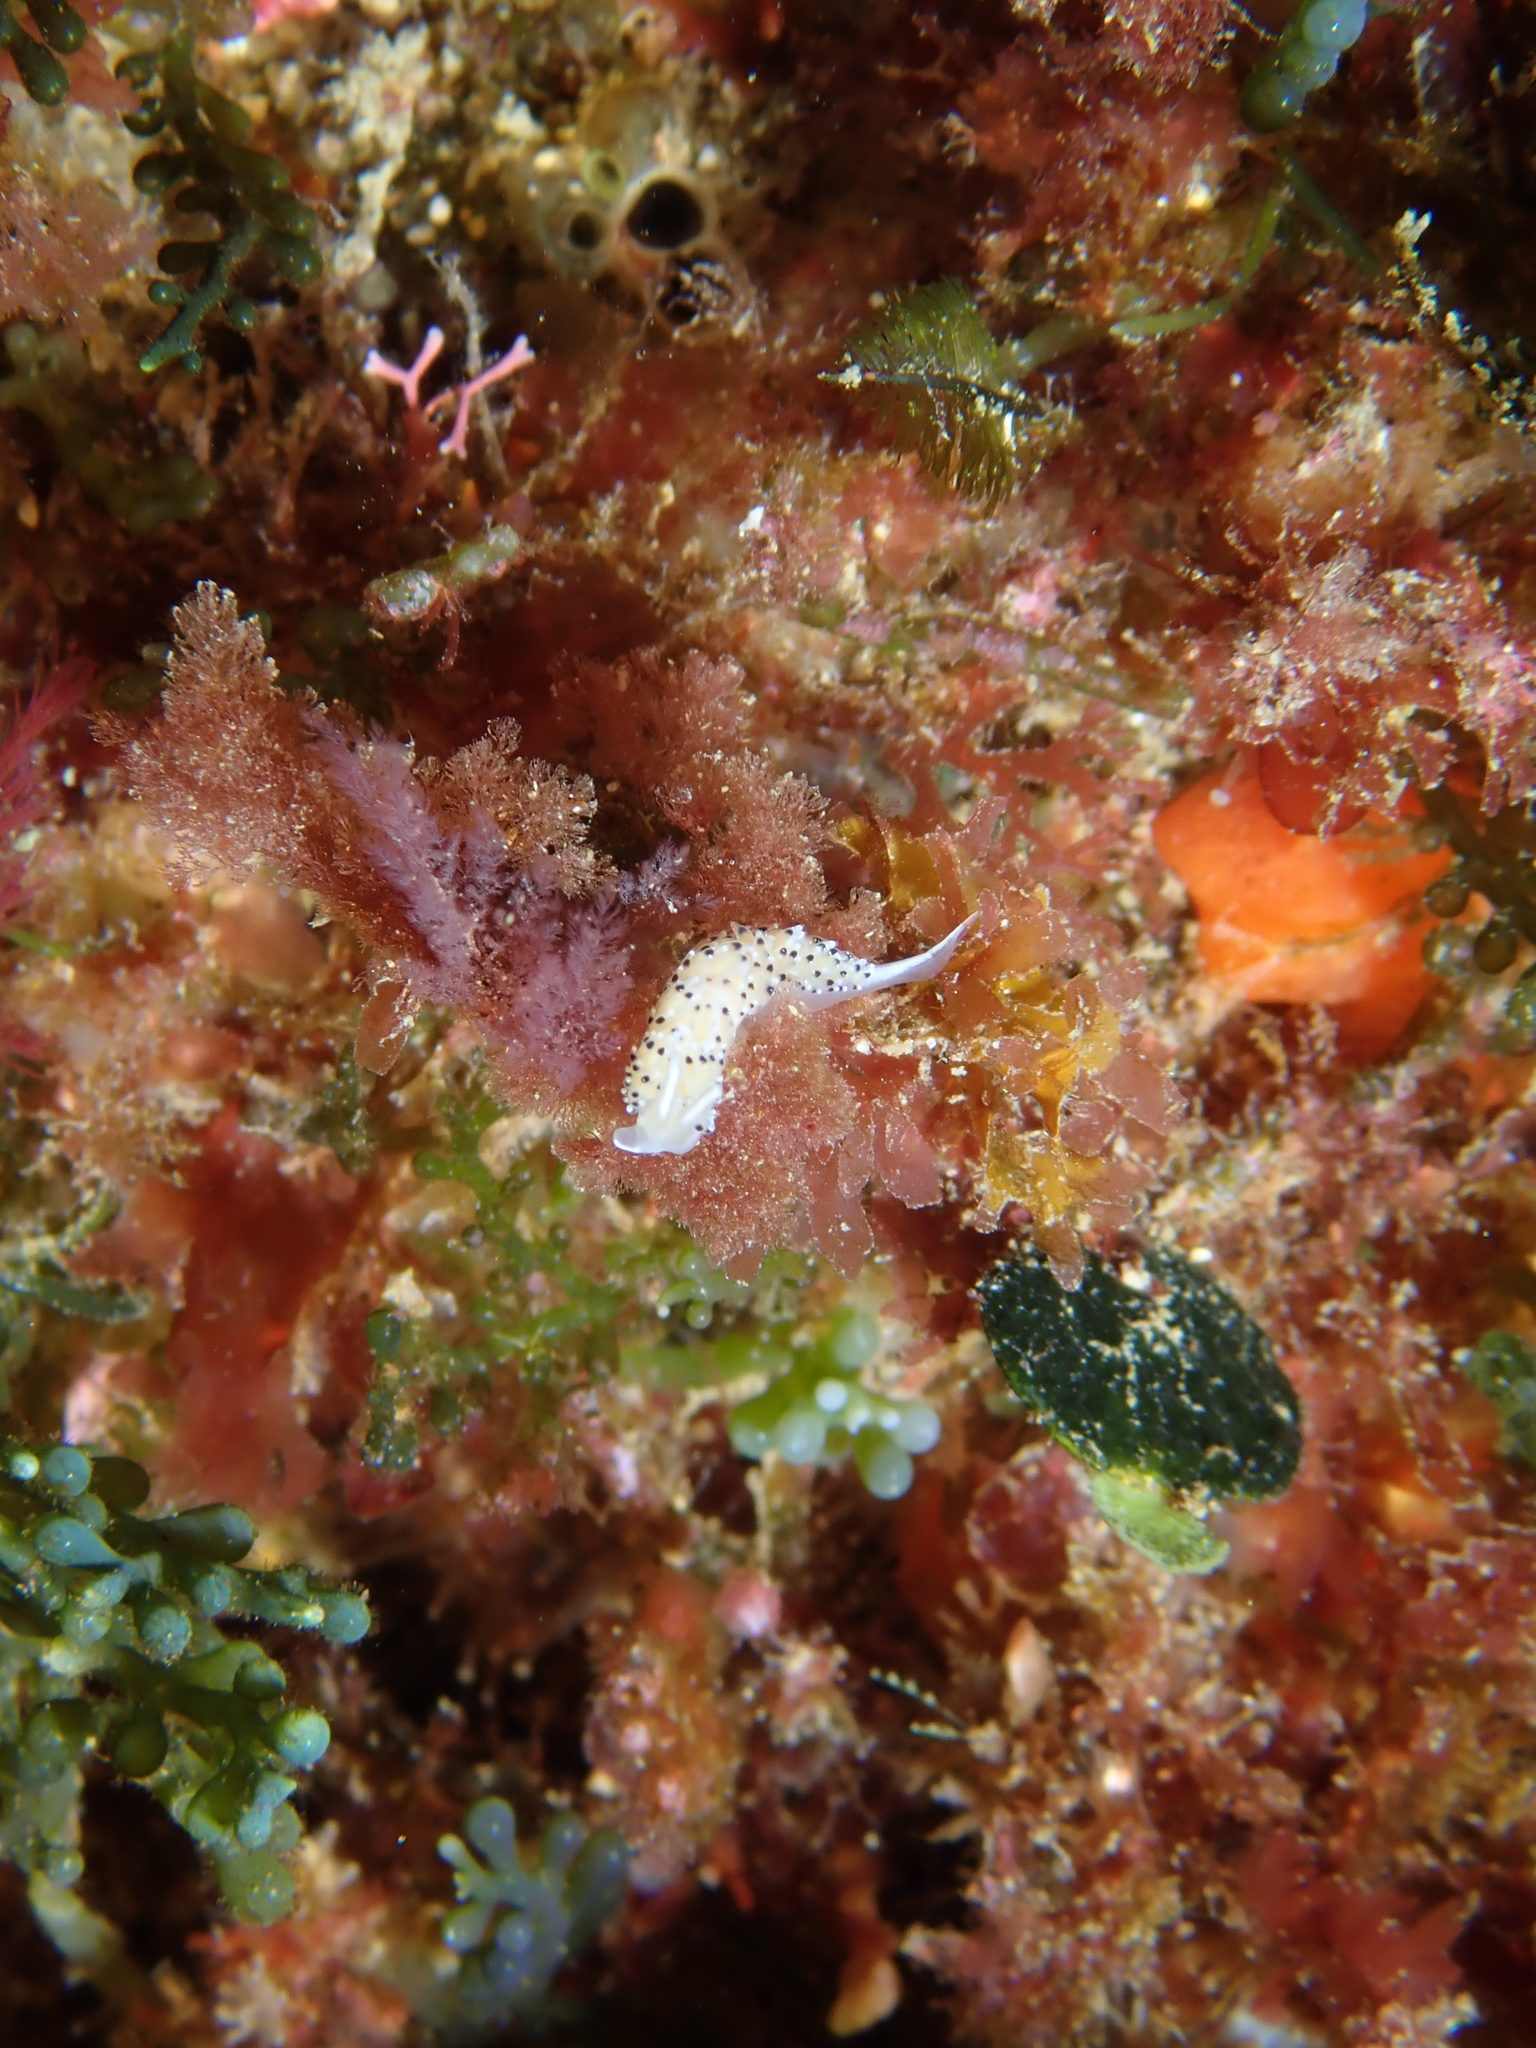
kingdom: Animalia
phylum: Mollusca
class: Gastropoda
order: Nudibranchia
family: Facelinidae
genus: Caloria
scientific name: Caloria elegans
